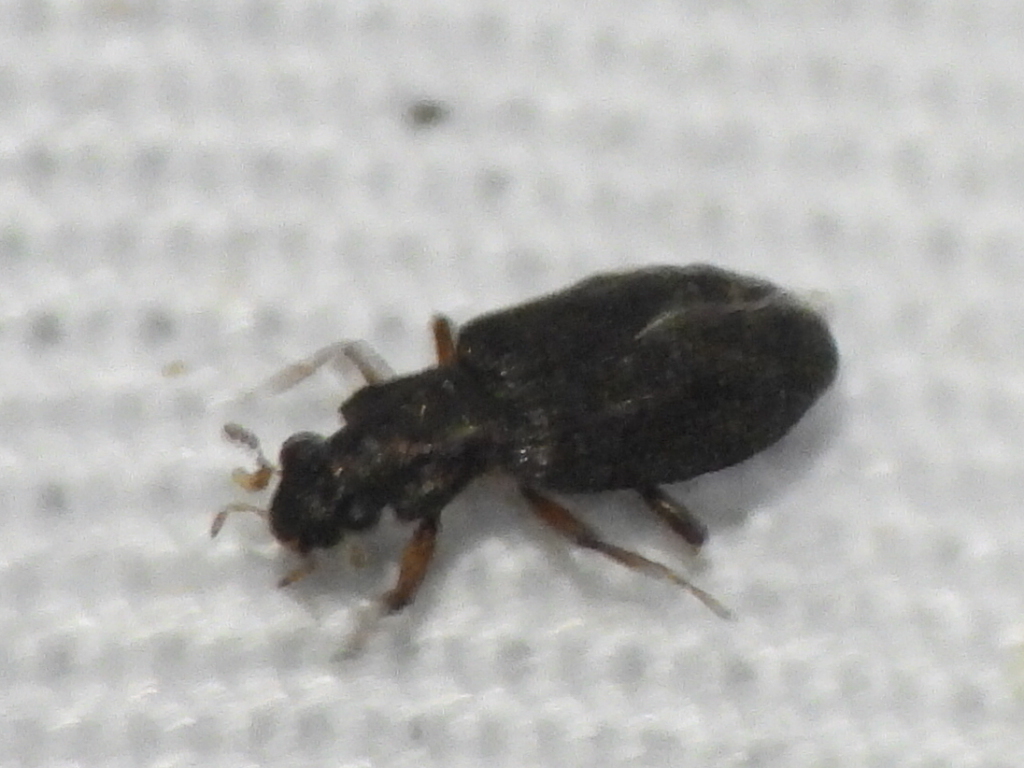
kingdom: Animalia
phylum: Arthropoda
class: Insecta
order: Coleoptera
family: Hydrochidae
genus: Hydrochus
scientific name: Hydrochus
